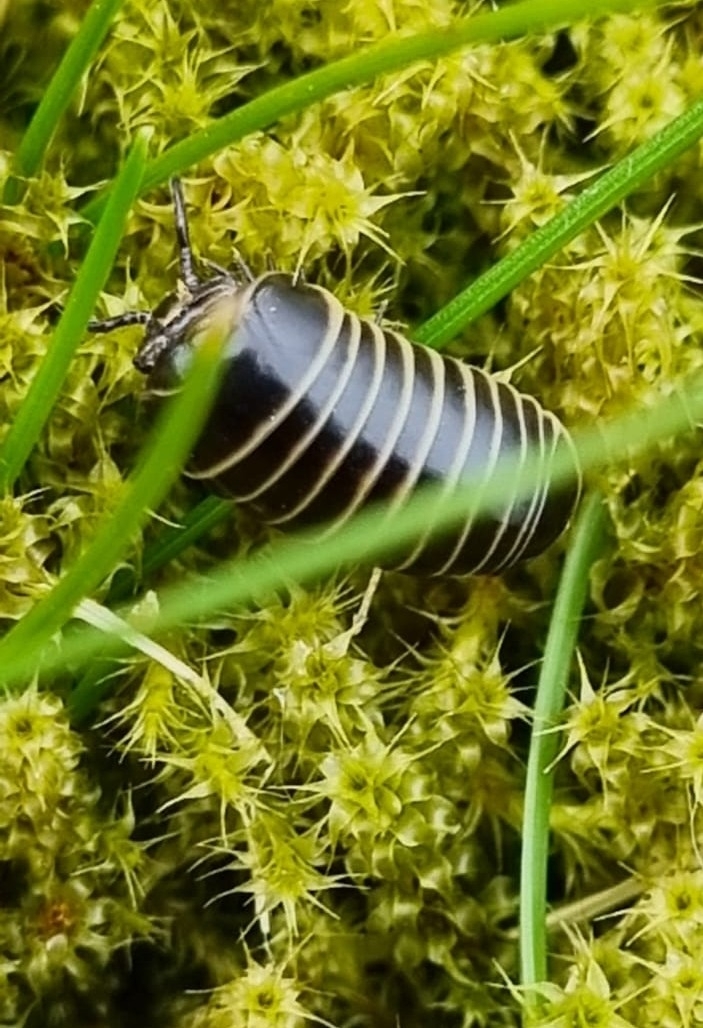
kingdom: Animalia
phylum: Arthropoda
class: Diplopoda
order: Glomerida
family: Glomeridae
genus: Glomeris
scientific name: Glomeris marginata
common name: Bordered pill millipede
